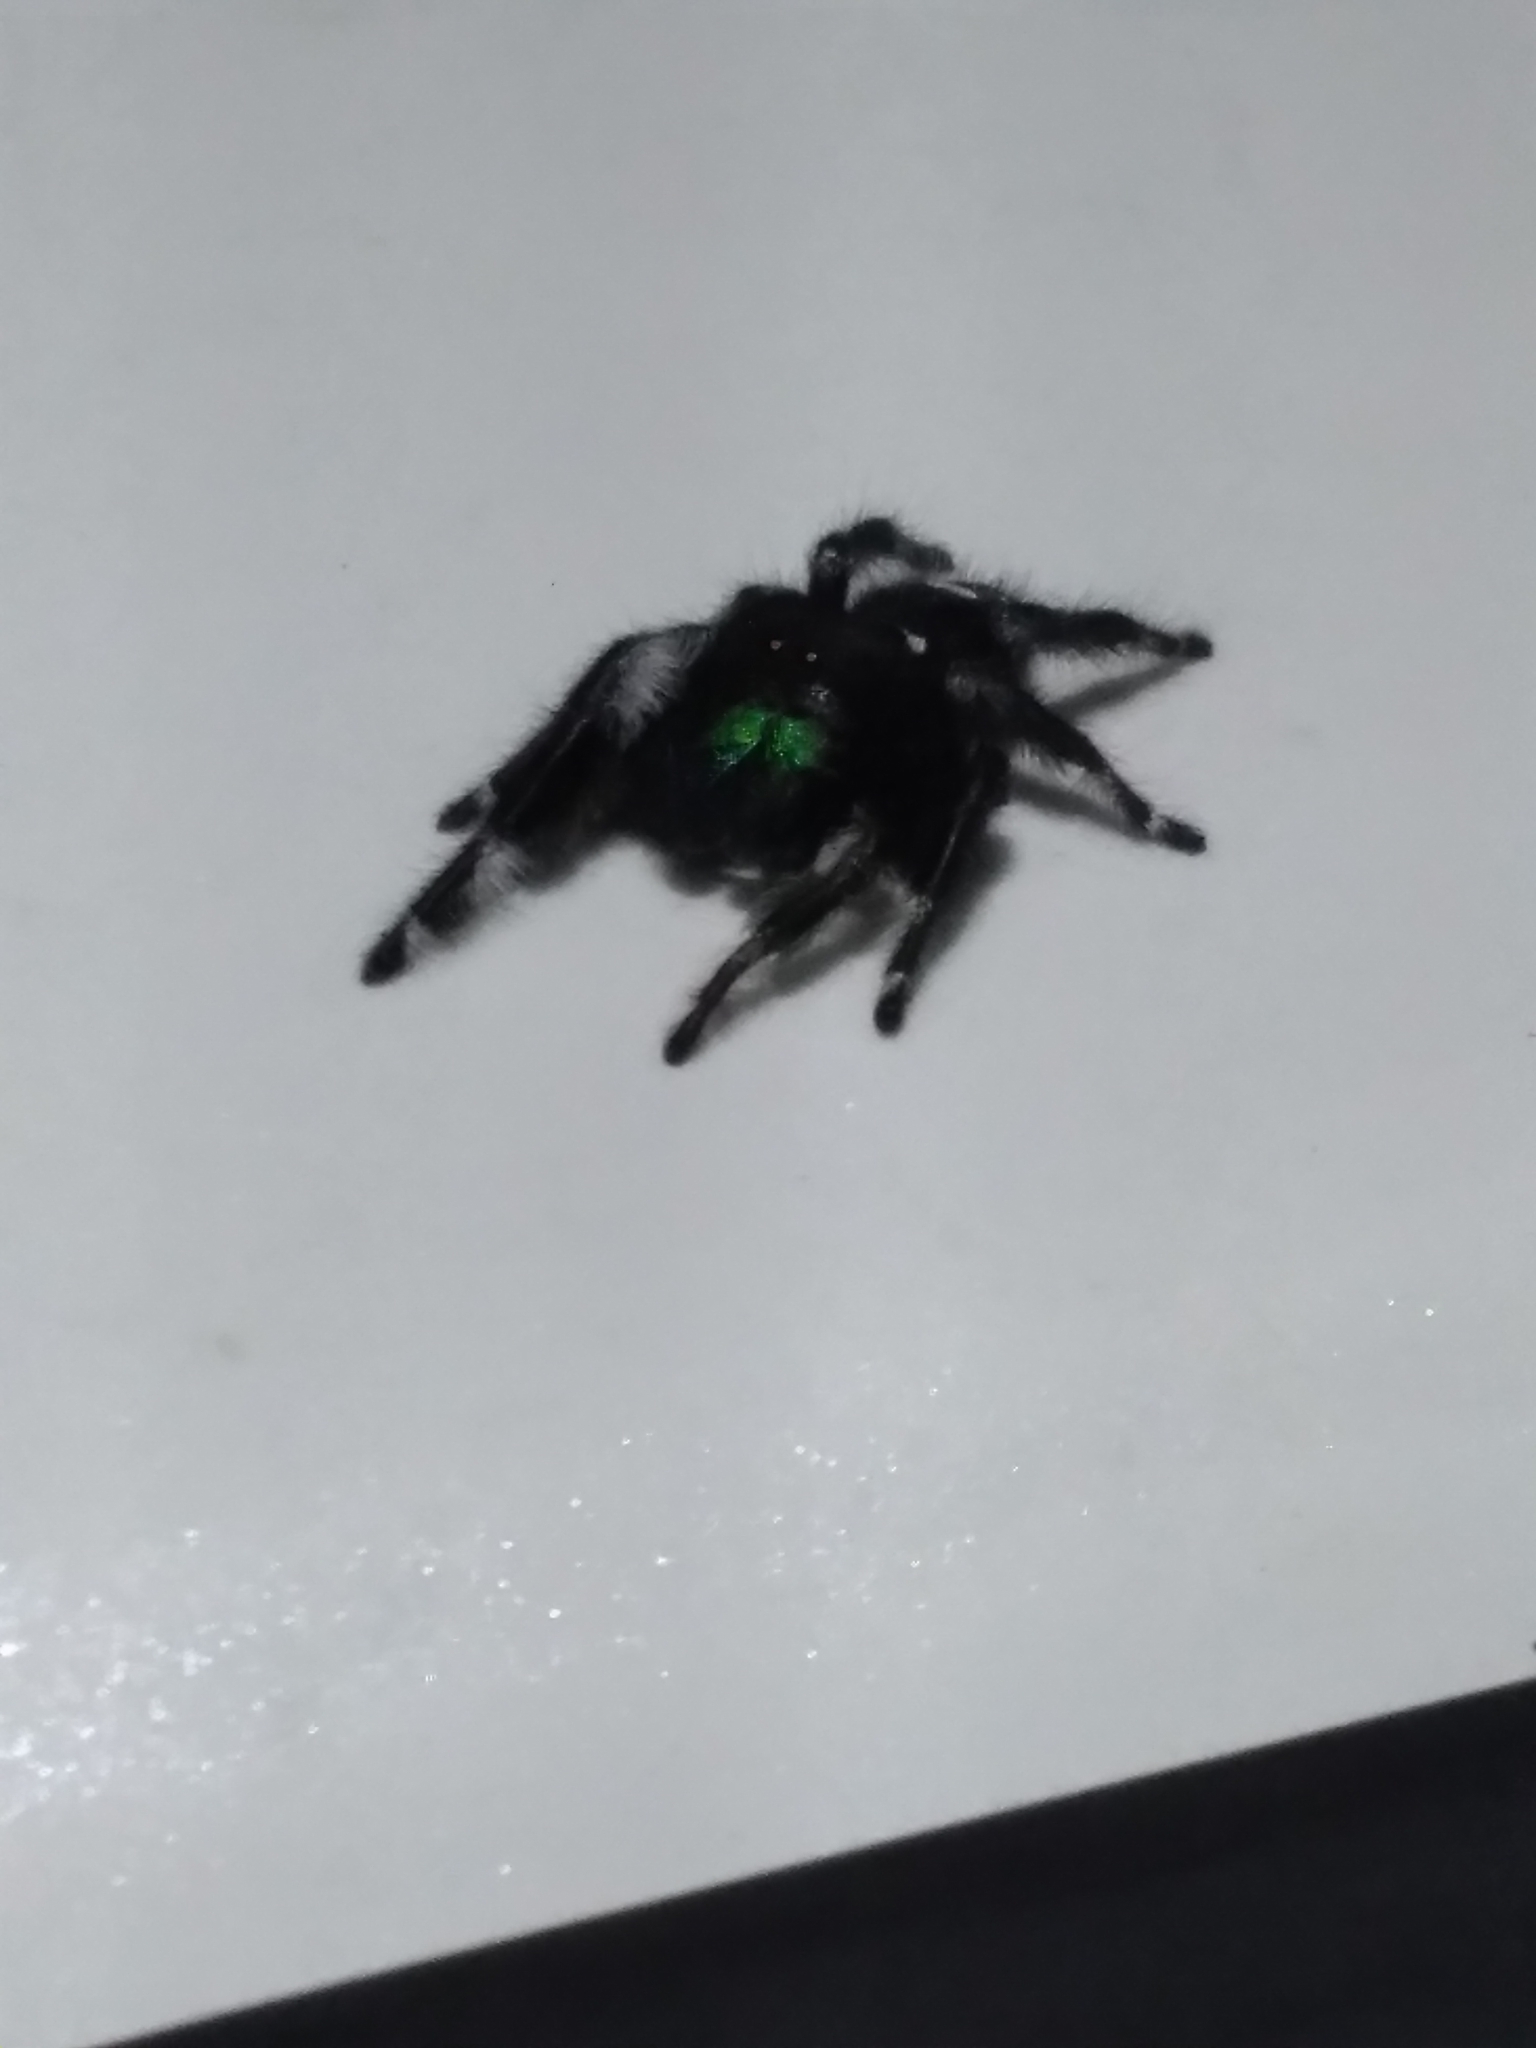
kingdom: Animalia
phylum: Arthropoda
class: Arachnida
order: Araneae
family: Salticidae
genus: Phidippus
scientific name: Phidippus audax
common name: Bold jumper
